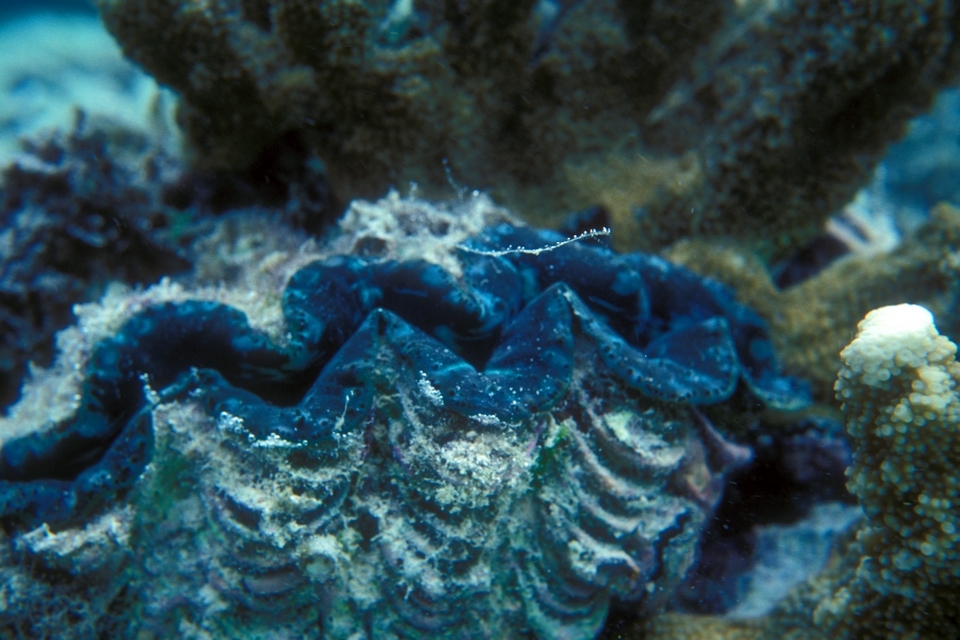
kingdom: Animalia
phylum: Mollusca
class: Bivalvia
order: Cardiida
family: Cardiidae
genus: Tridacna
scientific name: Tridacna maxima
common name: Small giant clam
